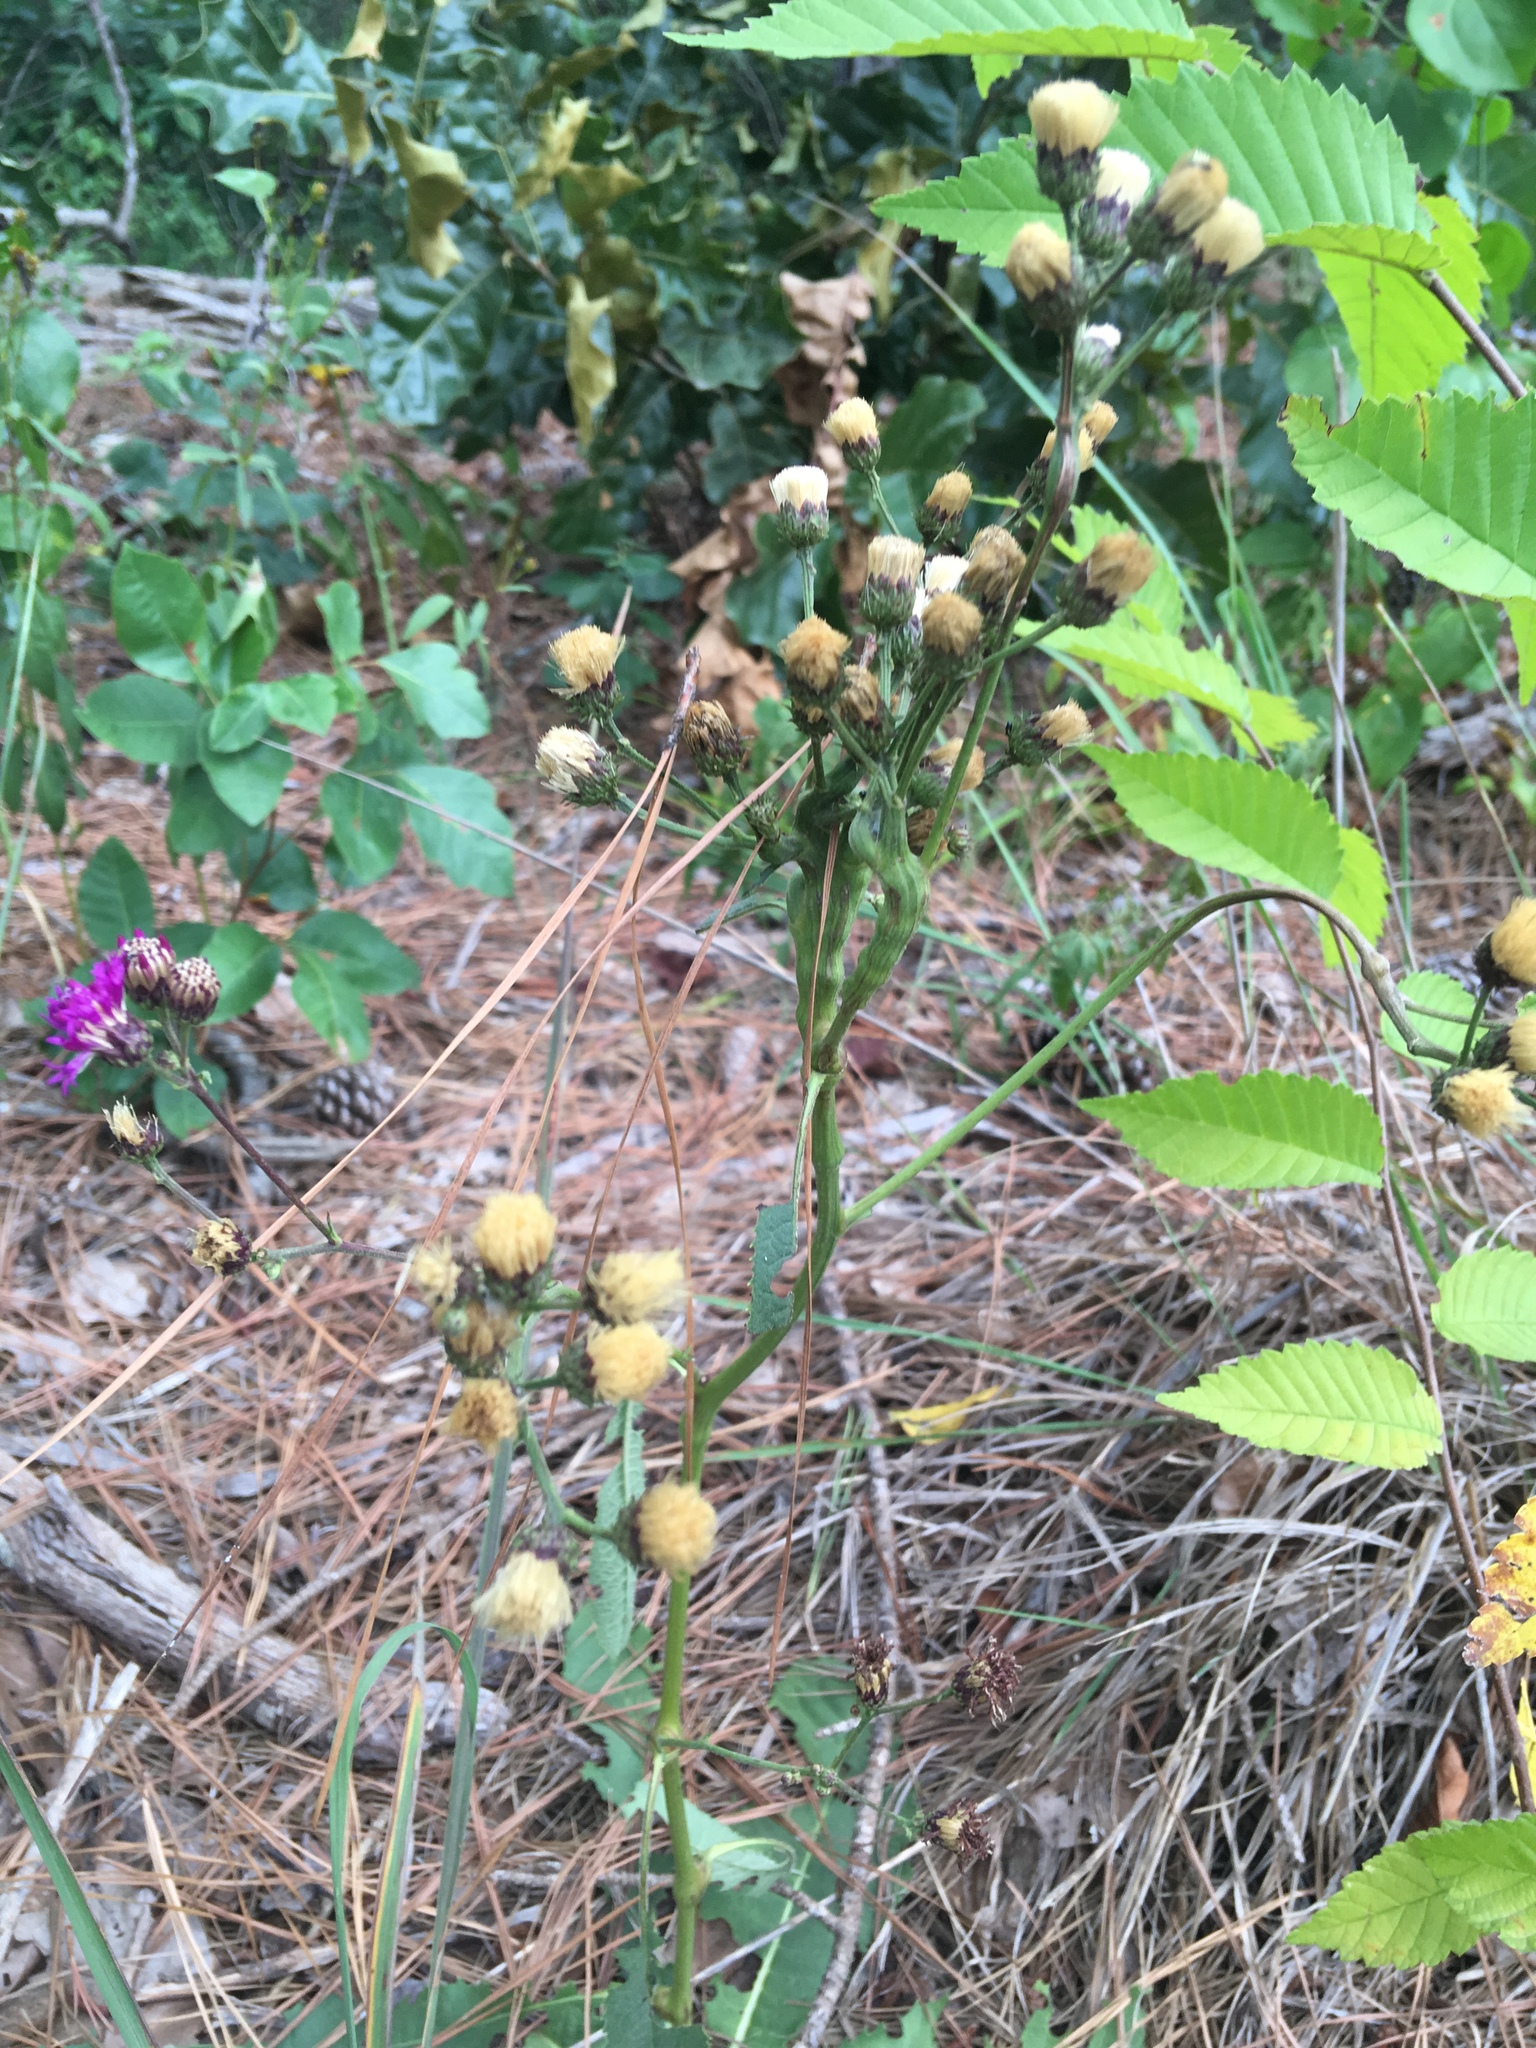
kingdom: Plantae
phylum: Tracheophyta
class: Magnoliopsida
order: Asterales
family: Asteraceae
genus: Vernonia
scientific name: Vernonia acaulis
